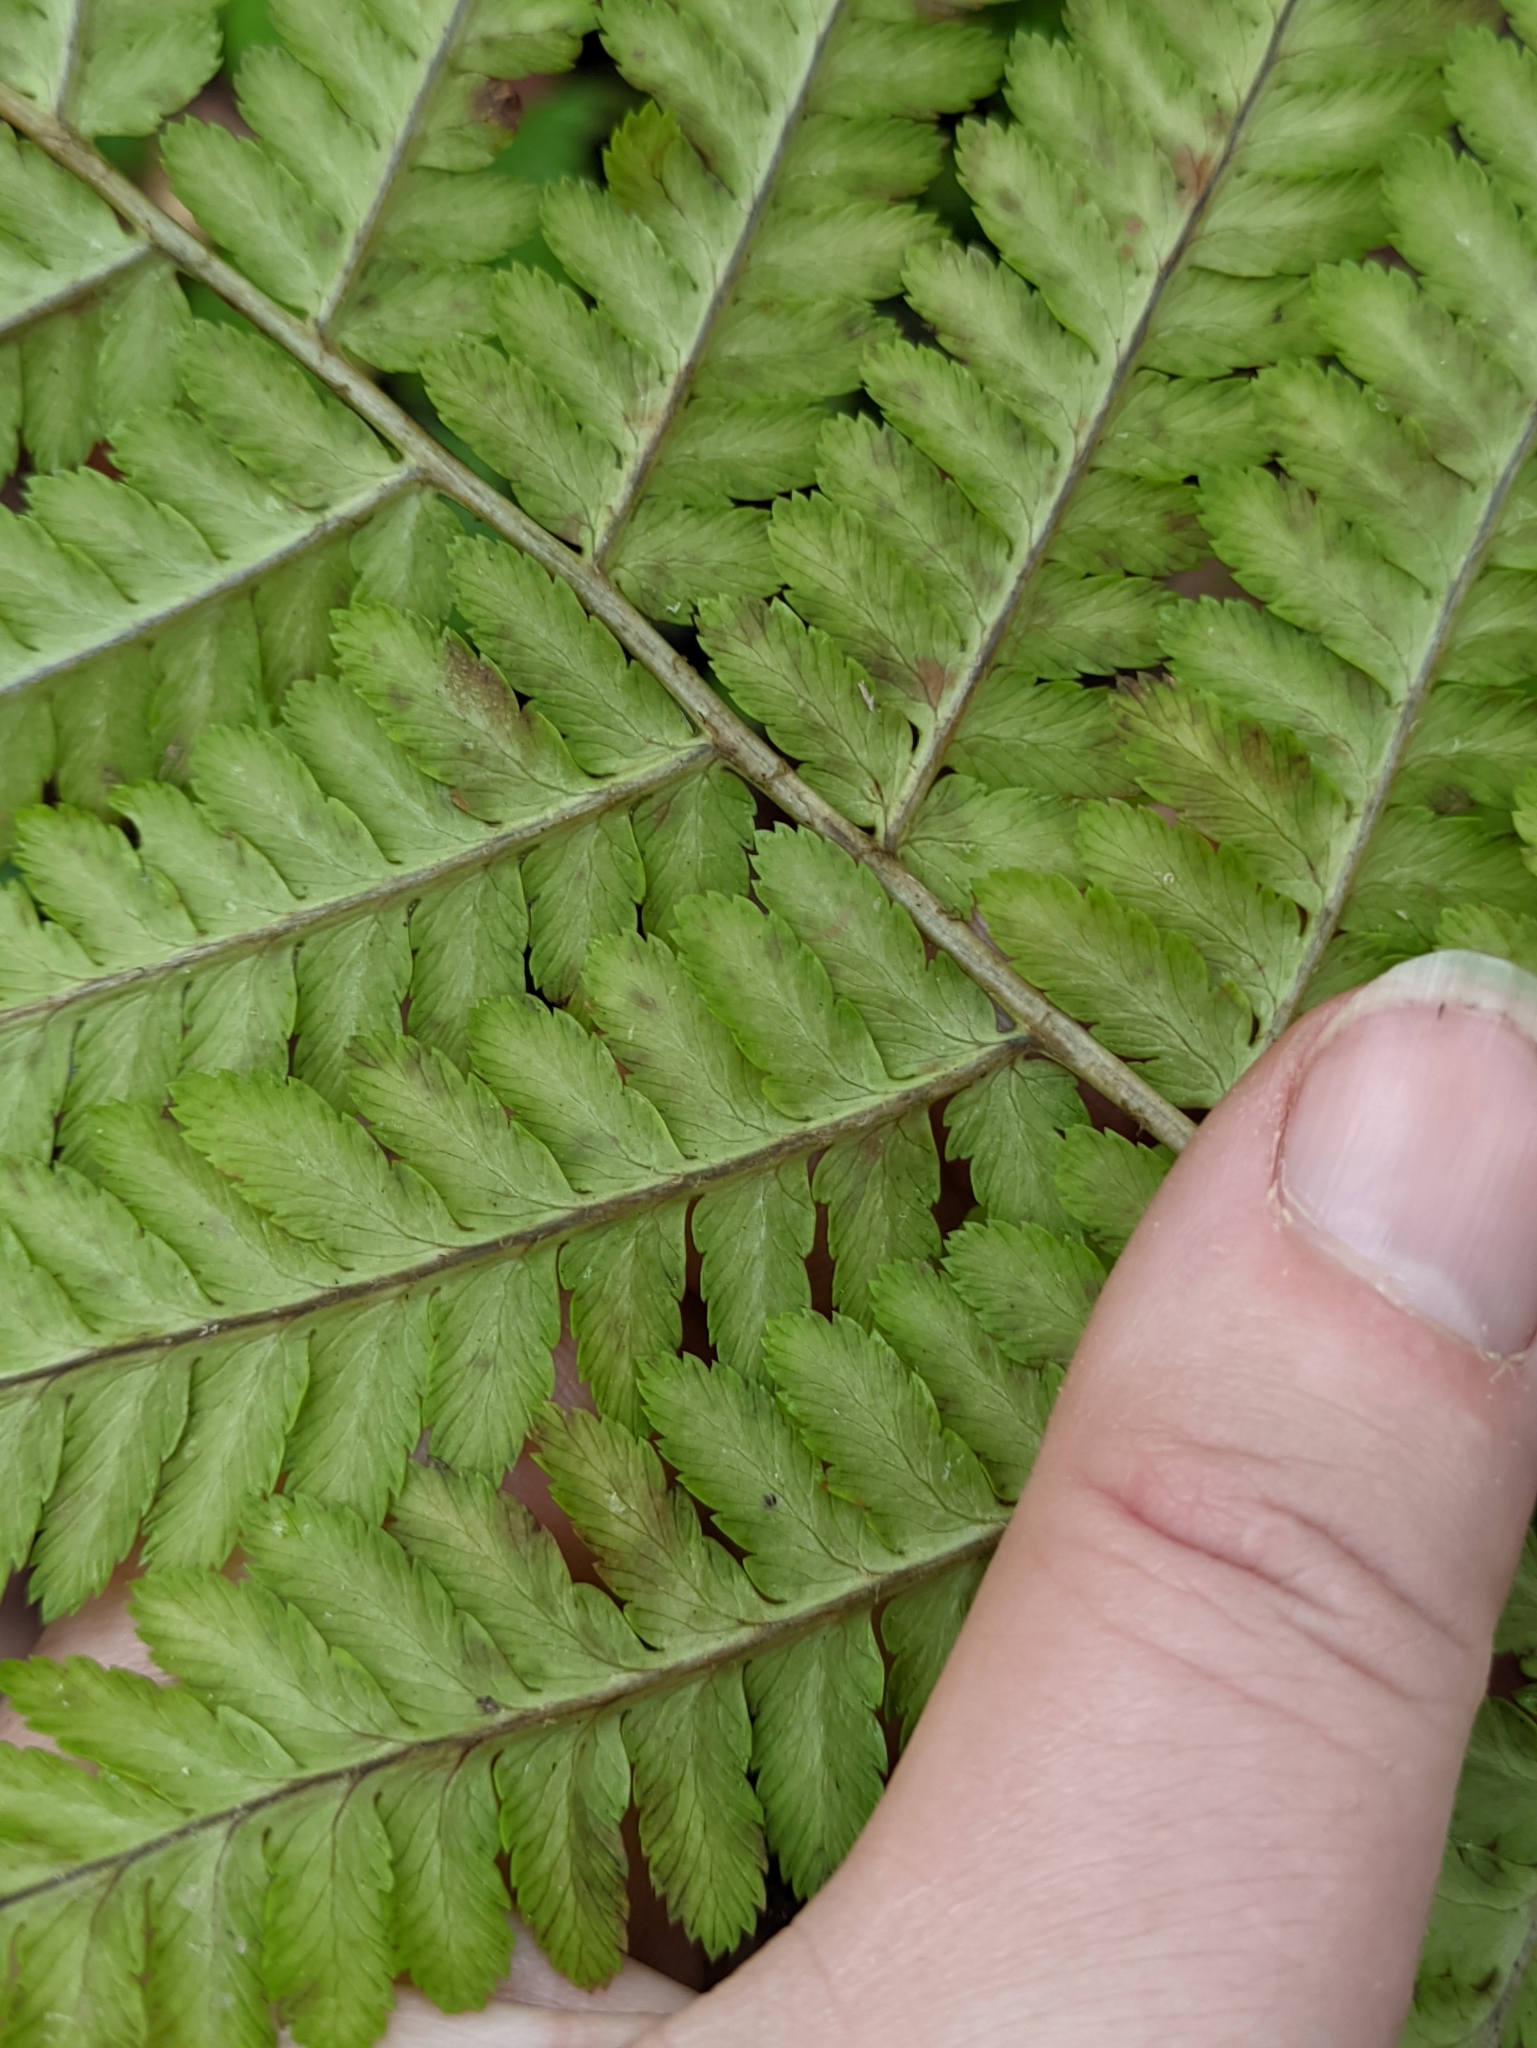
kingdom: Plantae
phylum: Tracheophyta
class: Polypodiopsida
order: Polypodiales
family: Dryopteridaceae
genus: Dryopteris
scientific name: Dryopteris filix-mas
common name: Male fern
